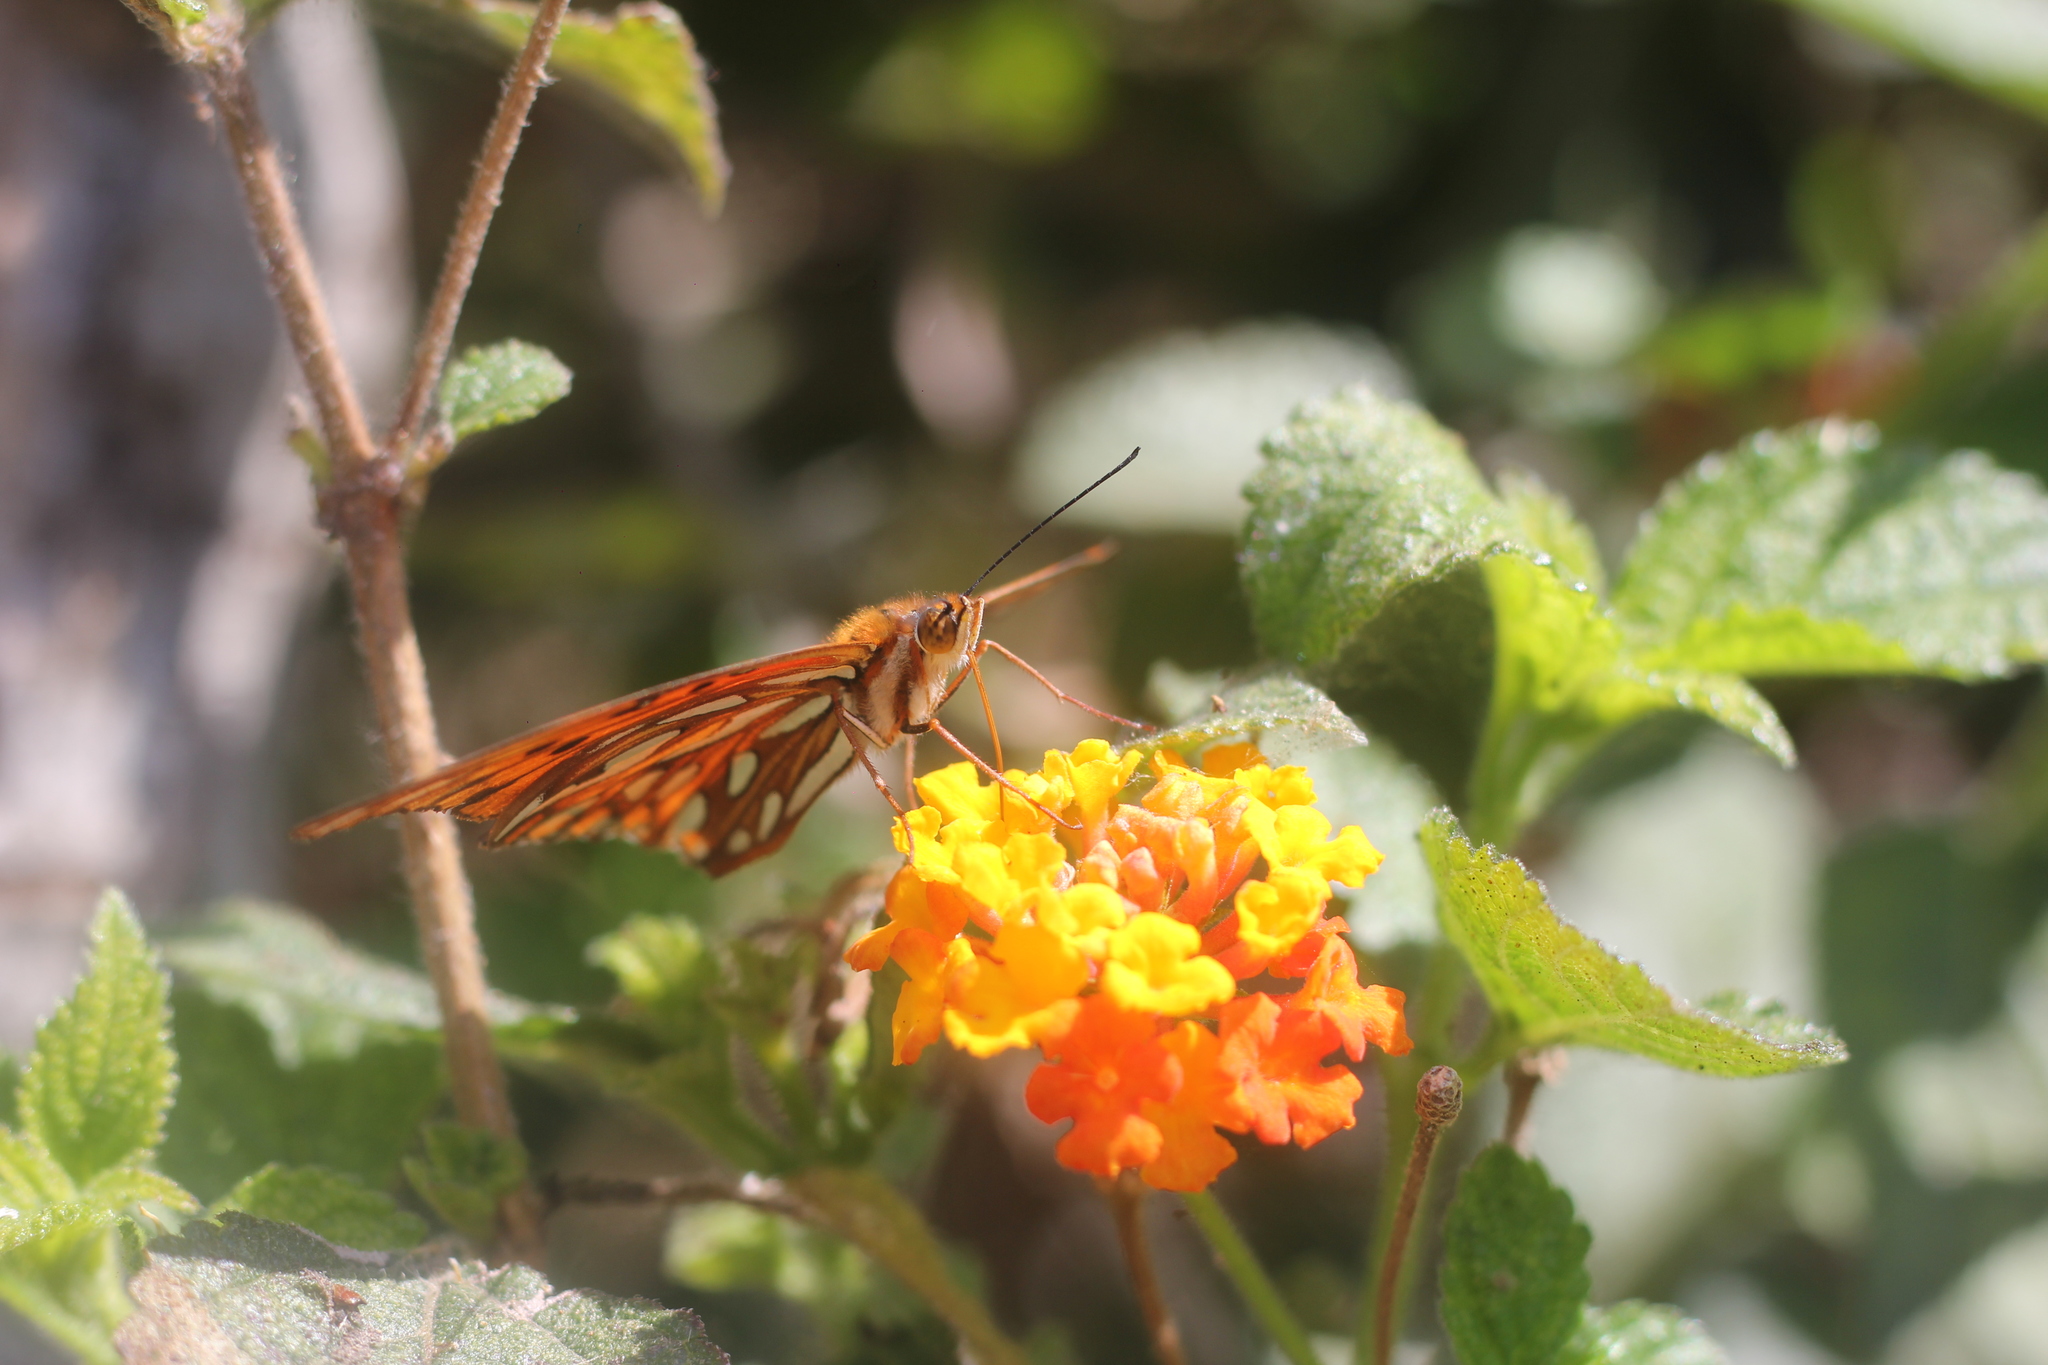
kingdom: Animalia
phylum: Arthropoda
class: Insecta
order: Lepidoptera
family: Nymphalidae
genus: Dione
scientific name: Dione vanillae
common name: Gulf fritillary
